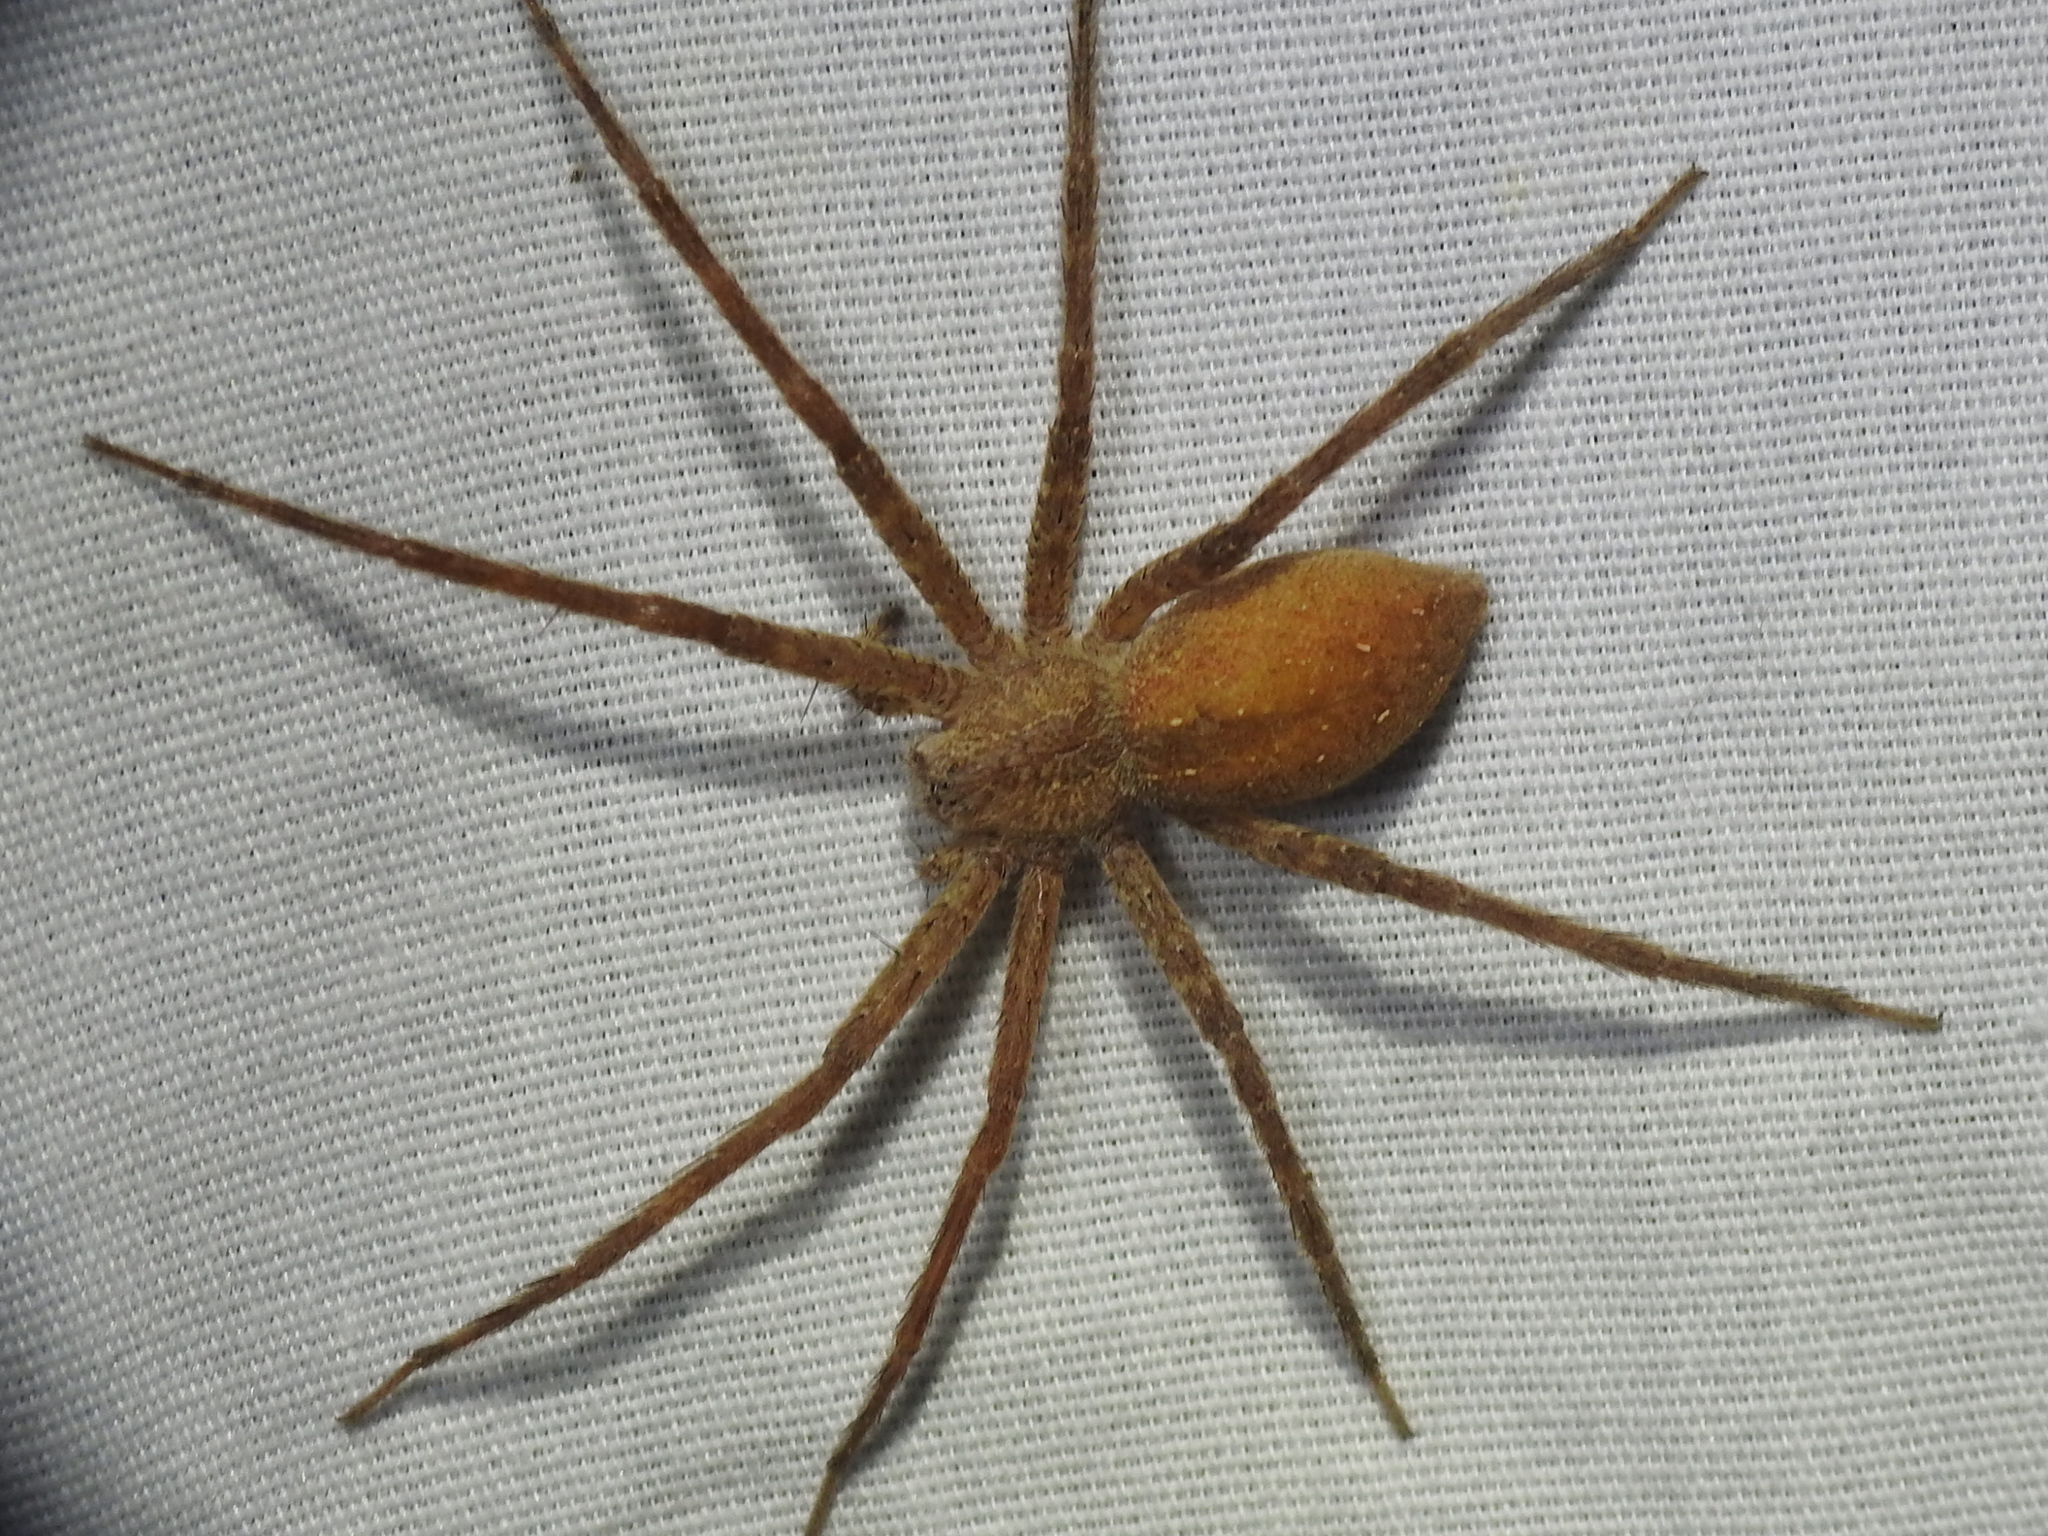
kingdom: Animalia
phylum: Arthropoda
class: Arachnida
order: Araneae
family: Pisauridae
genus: Pisaurina
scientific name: Pisaurina mira
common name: American nursery web spider
